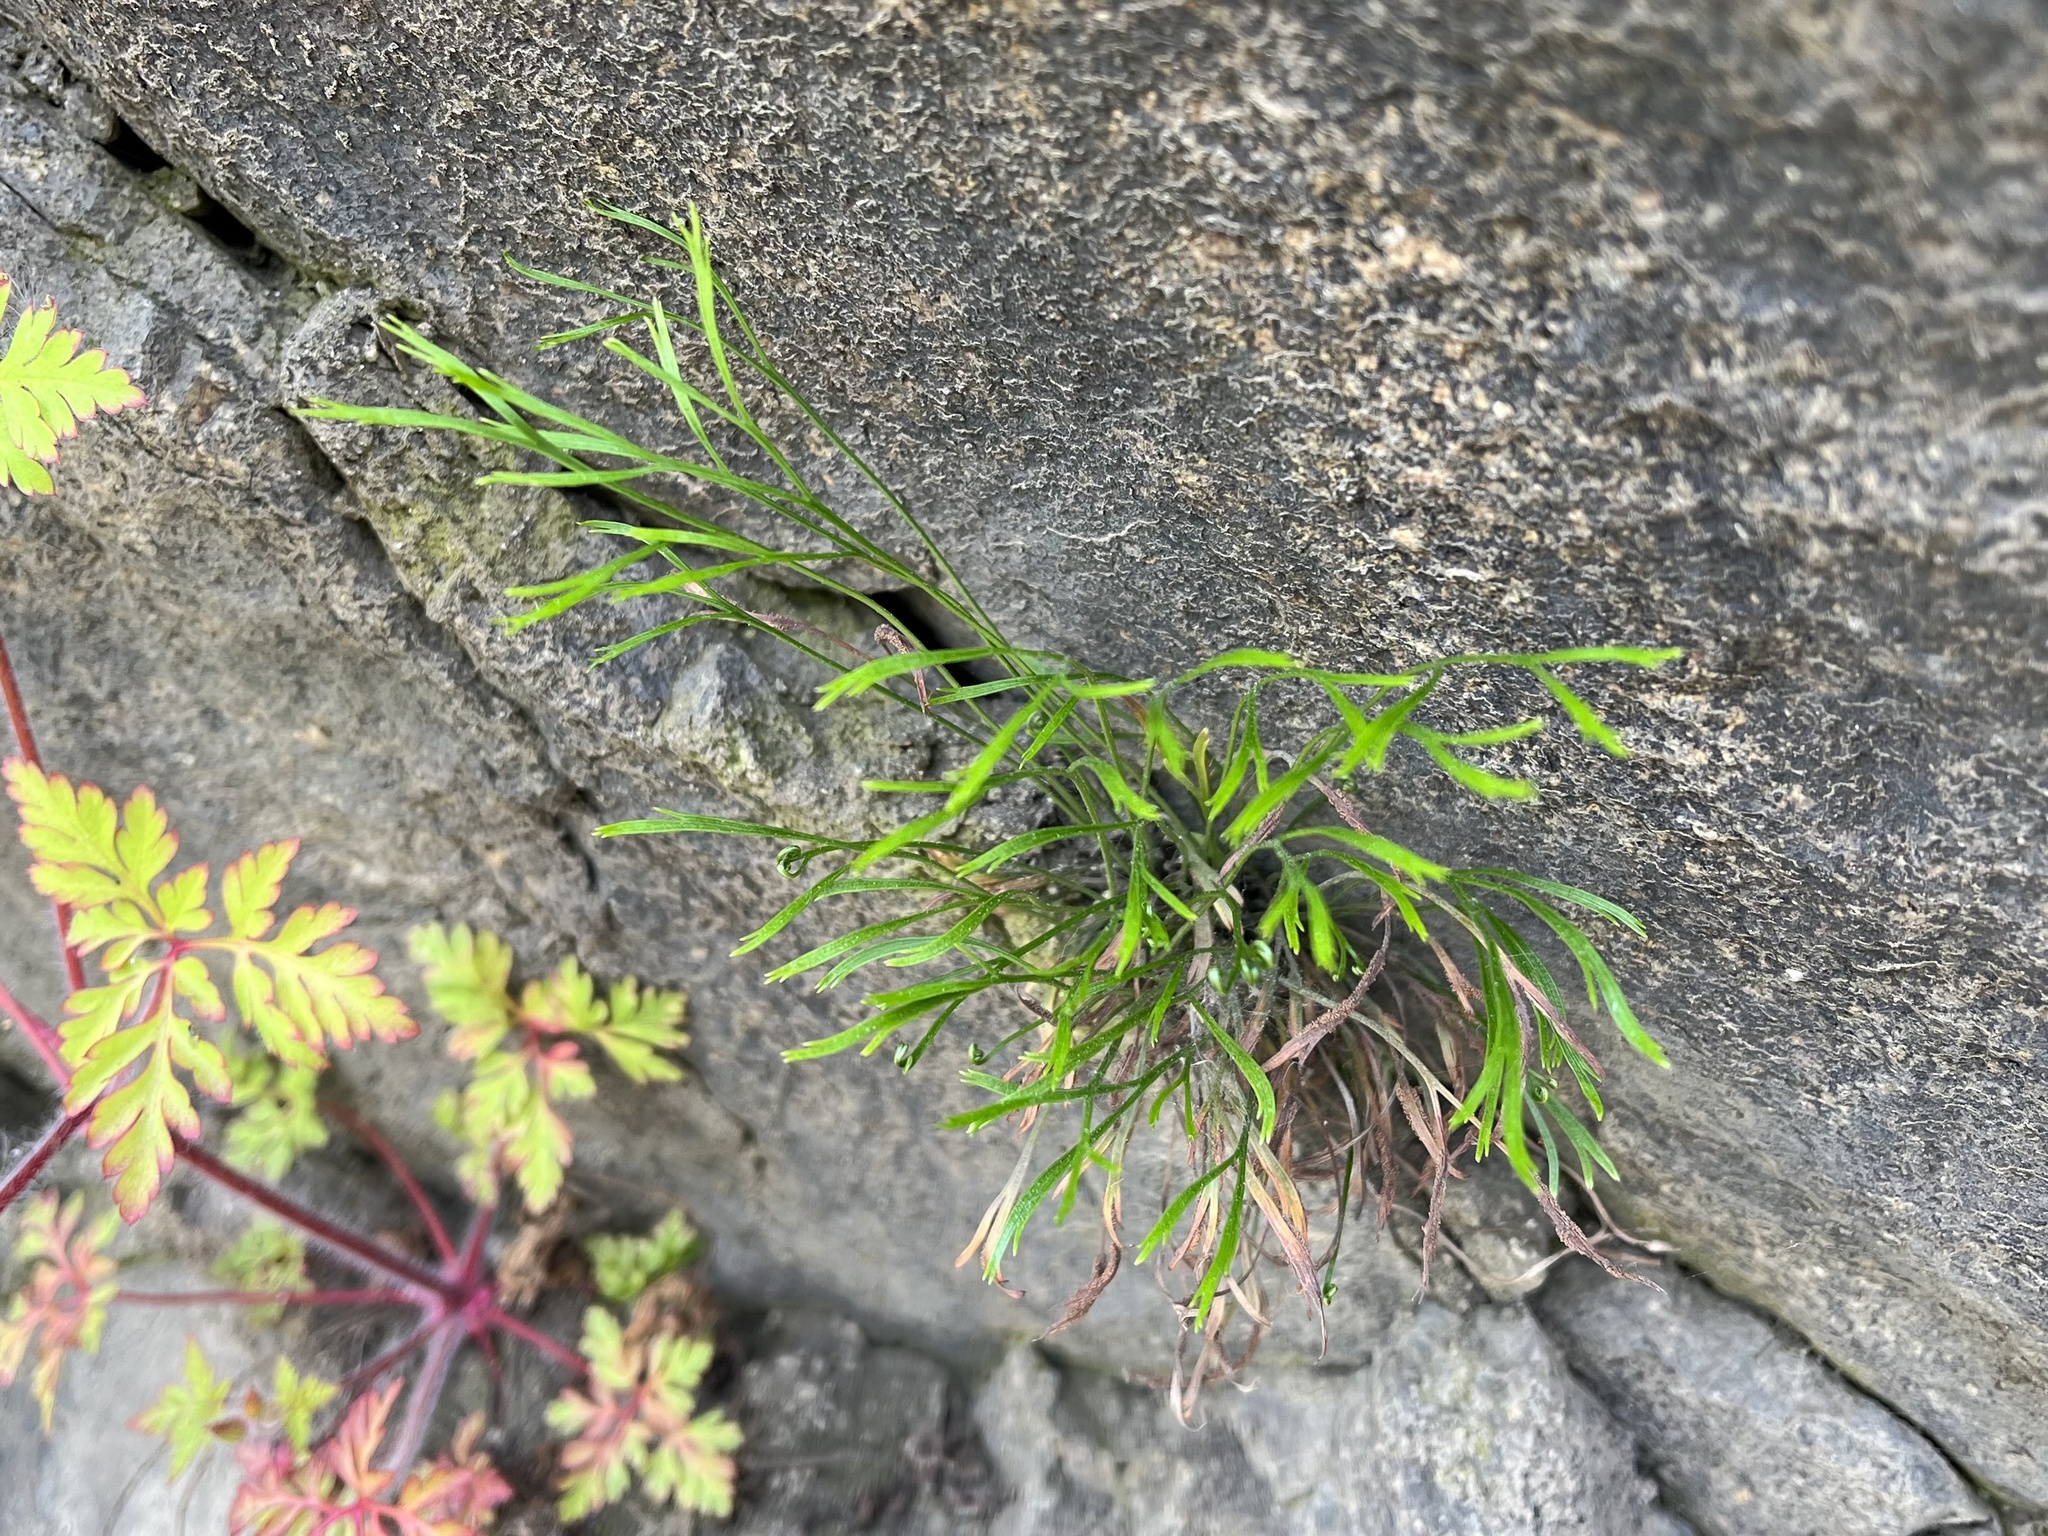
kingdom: Plantae
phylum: Tracheophyta
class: Polypodiopsida
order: Polypodiales
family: Aspleniaceae
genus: Asplenium
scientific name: Asplenium septentrionale
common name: Forked spleenwort
